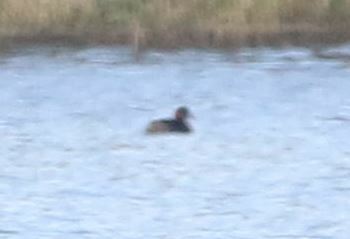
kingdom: Animalia
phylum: Chordata
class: Aves
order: Podicipediformes
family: Podicipedidae
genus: Tachybaptus
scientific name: Tachybaptus ruficollis
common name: Little grebe
